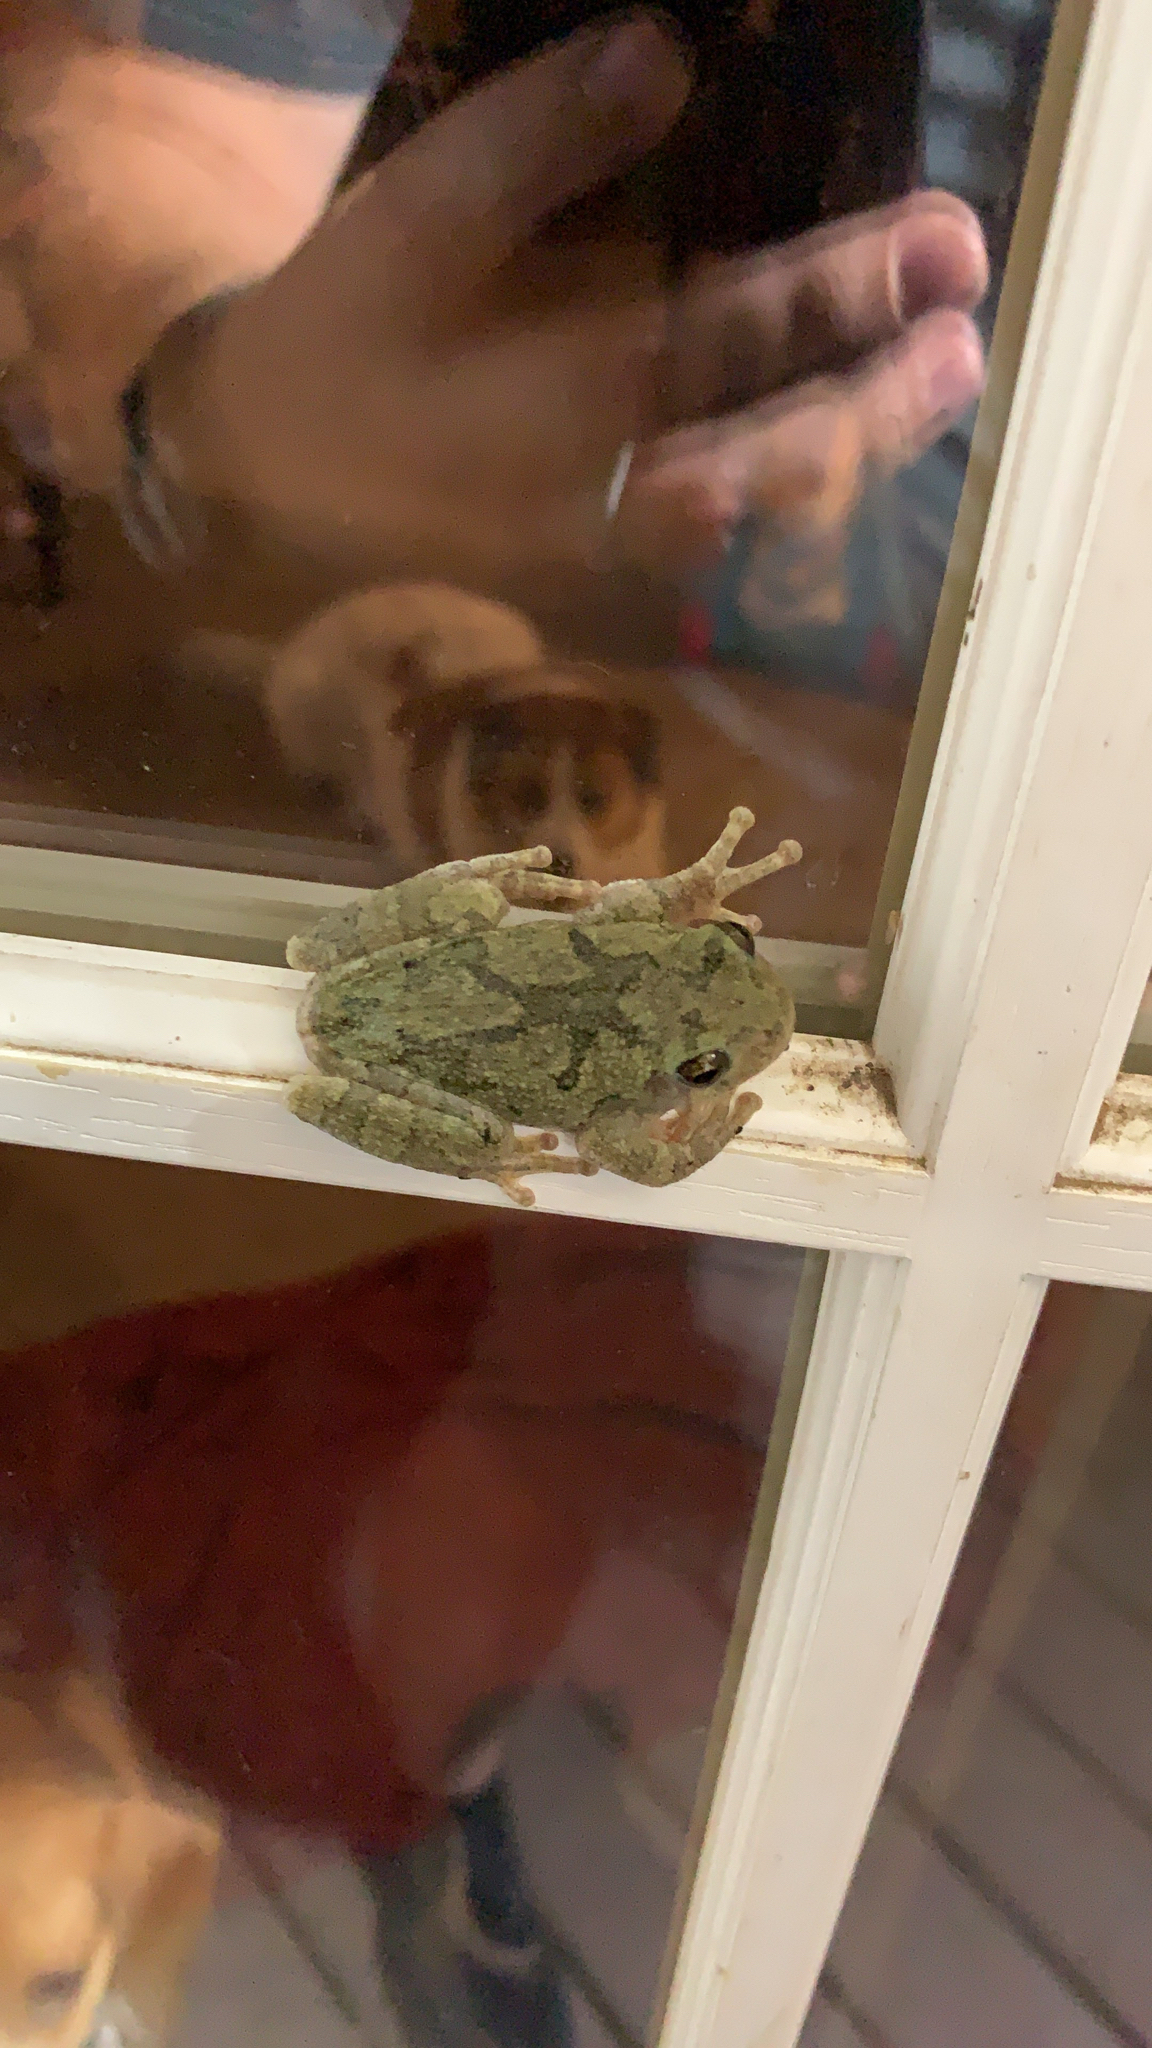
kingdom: Animalia
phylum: Chordata
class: Amphibia
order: Anura
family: Hylidae
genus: Hyla
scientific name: Hyla
